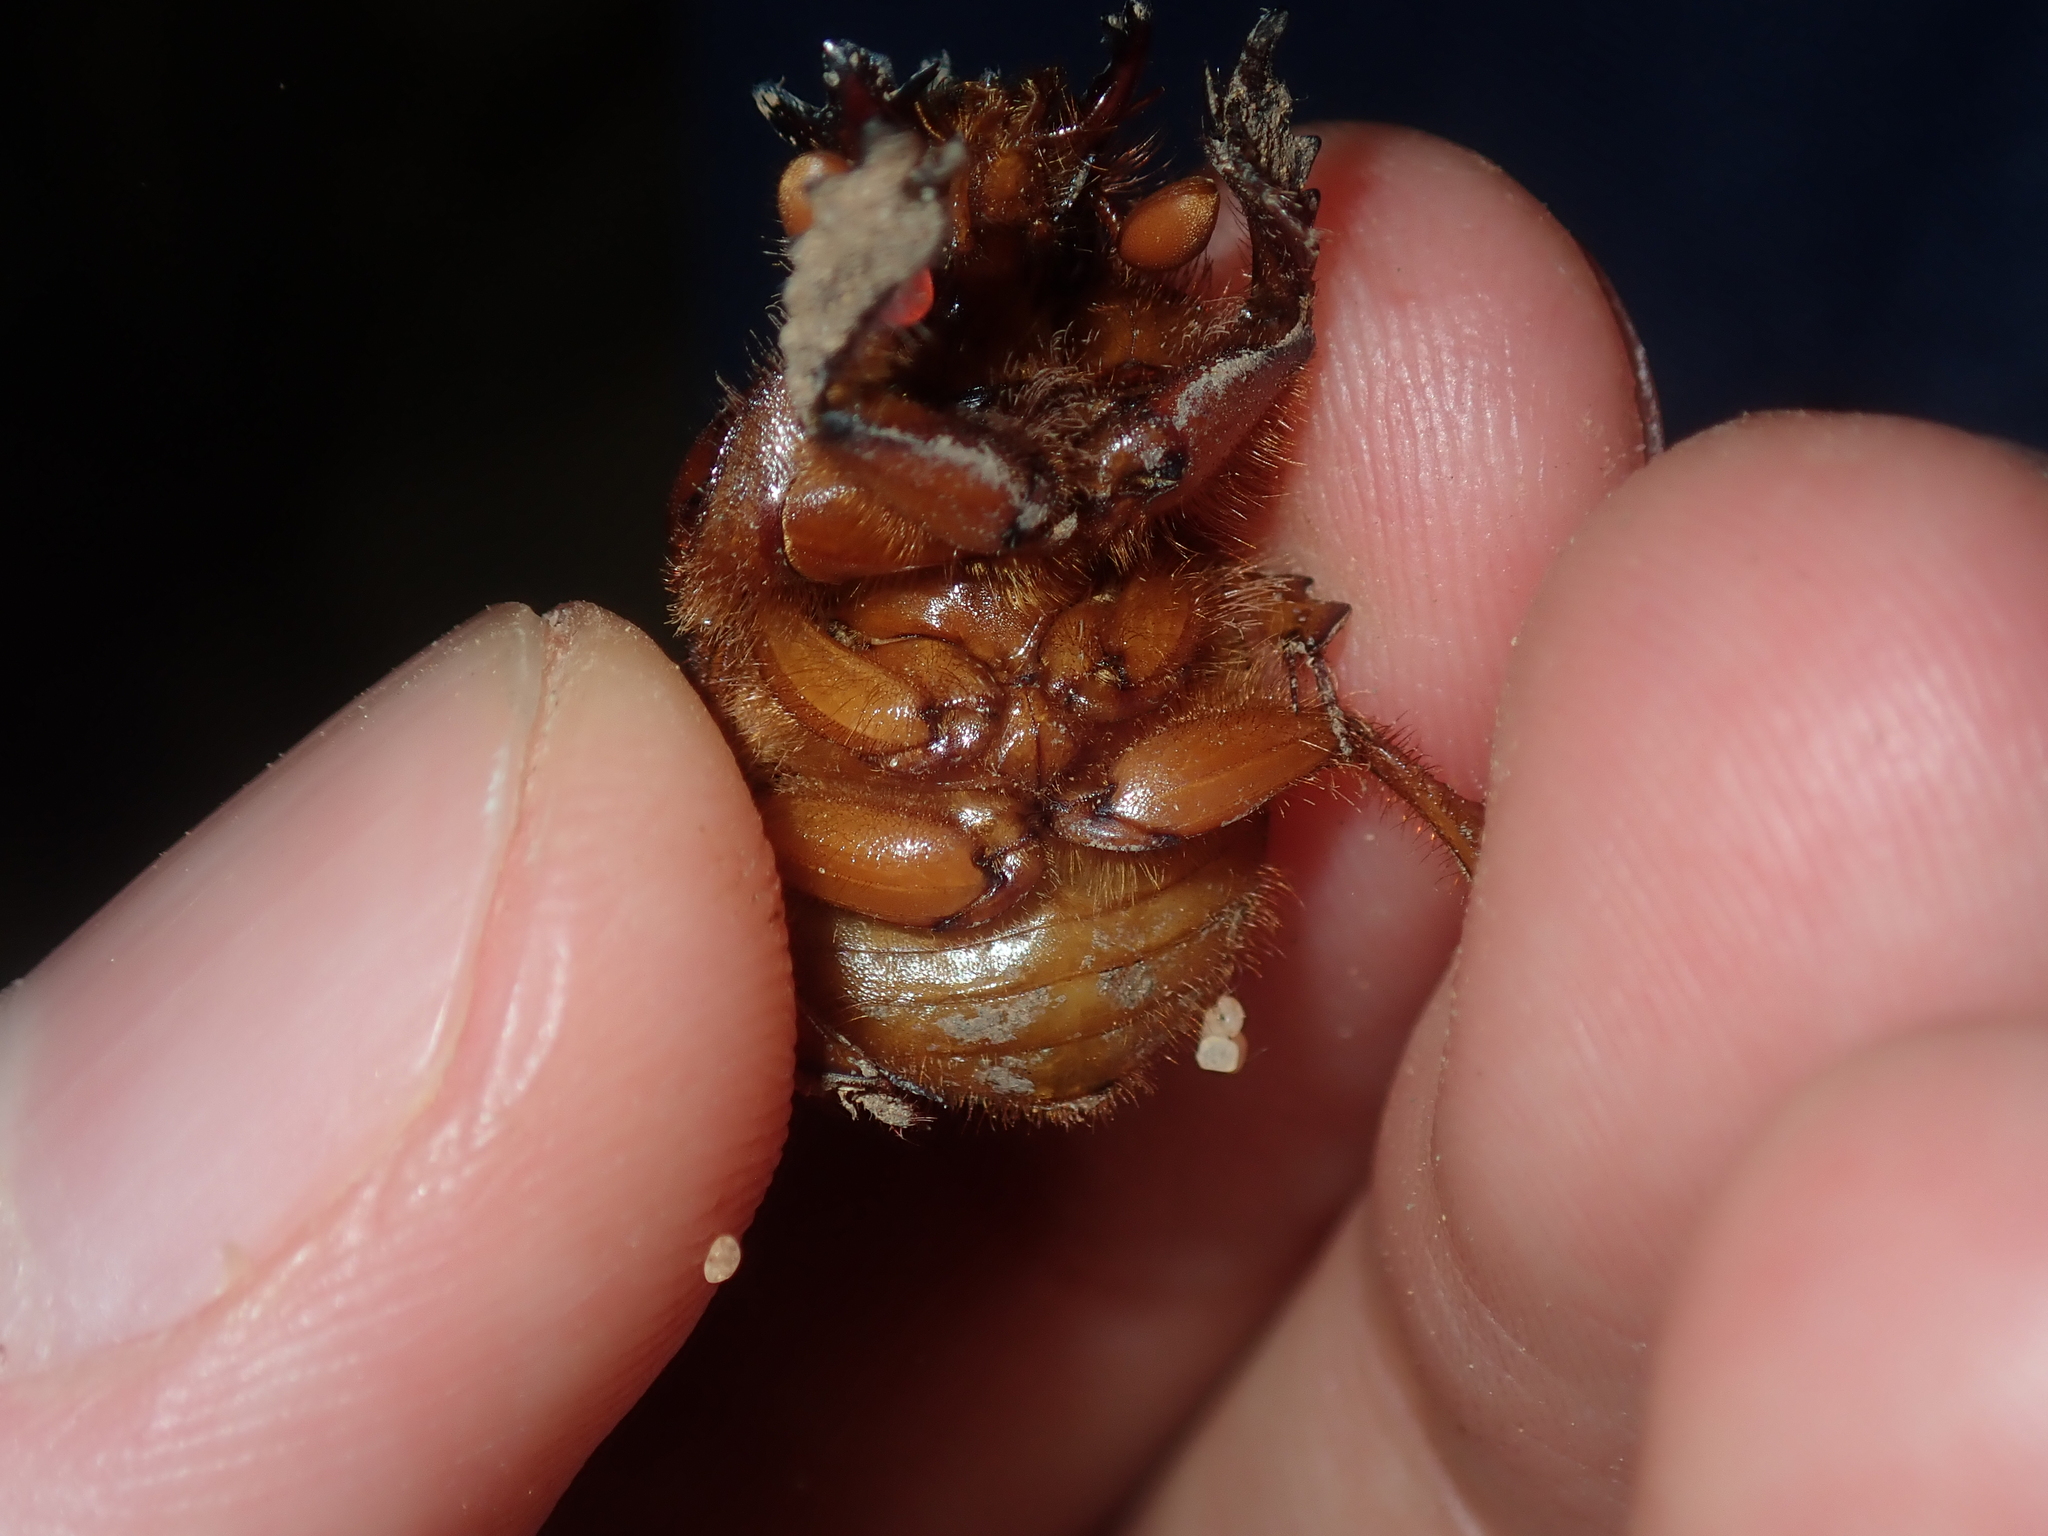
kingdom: Animalia
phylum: Arthropoda
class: Insecta
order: Coleoptera
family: Geotrupidae
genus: Bolborhachium
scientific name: Bolborhachium tricavicolle
